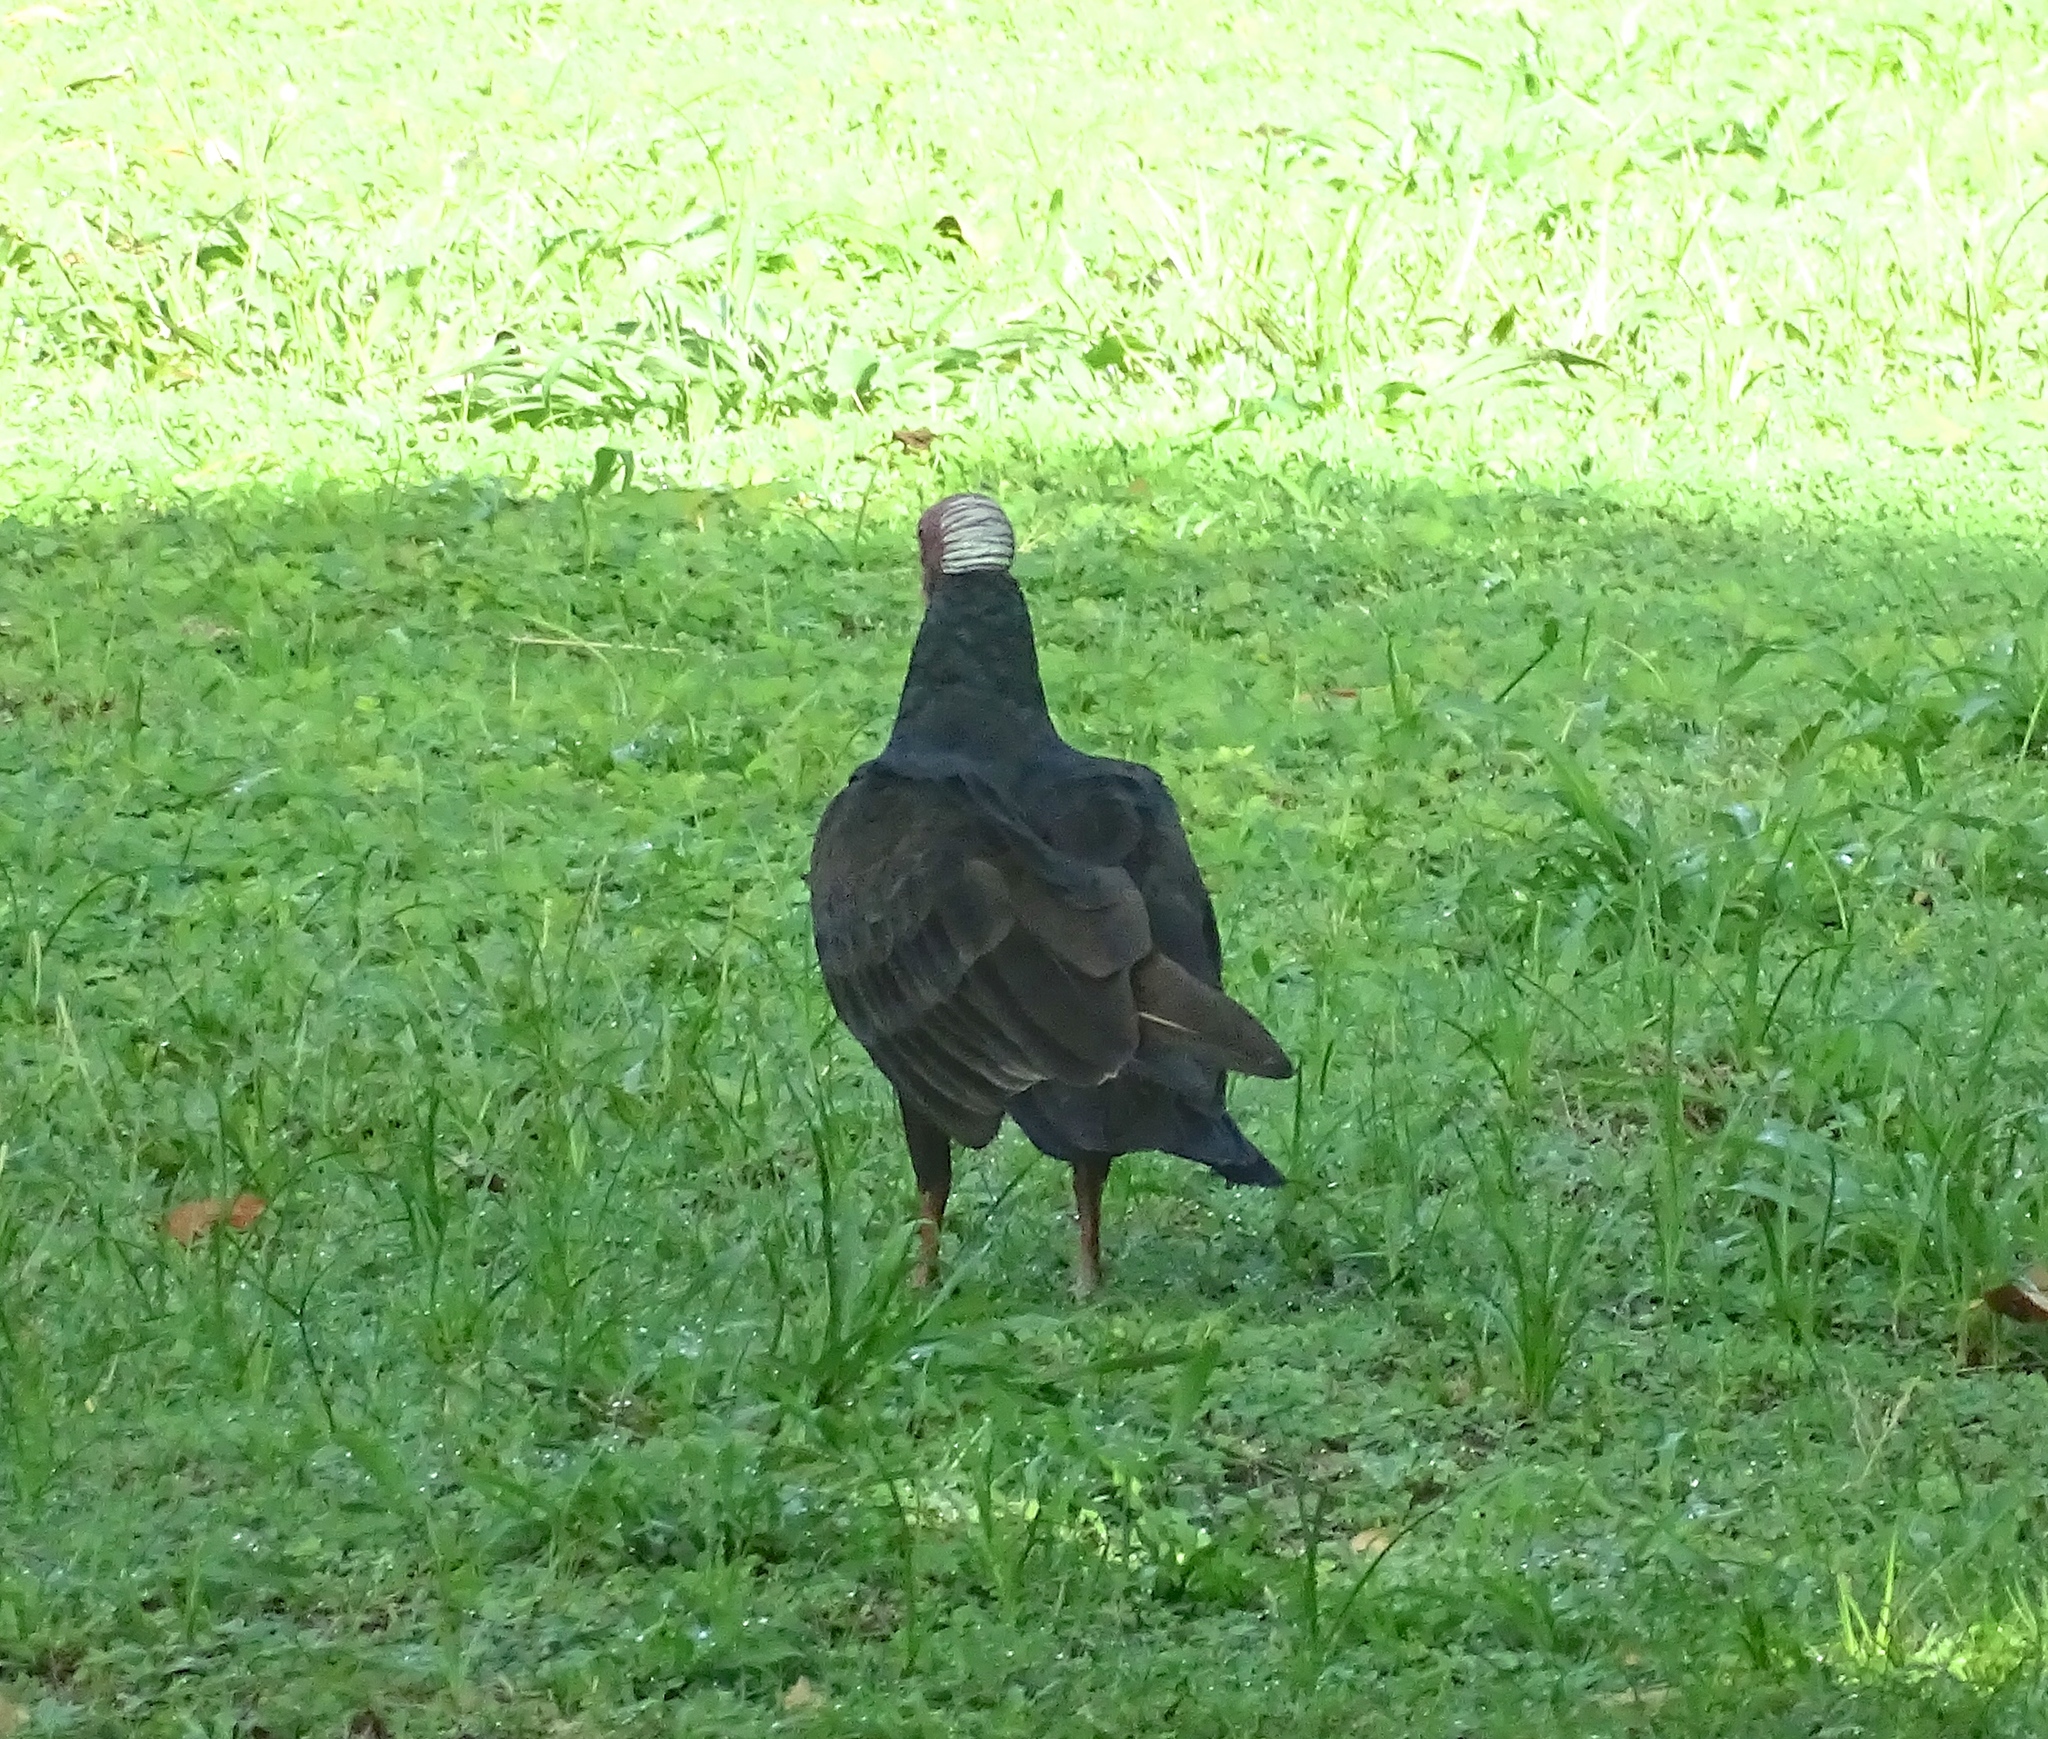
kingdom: Animalia
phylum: Chordata
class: Aves
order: Accipitriformes
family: Cathartidae
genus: Cathartes
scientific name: Cathartes aura
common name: Turkey vulture
